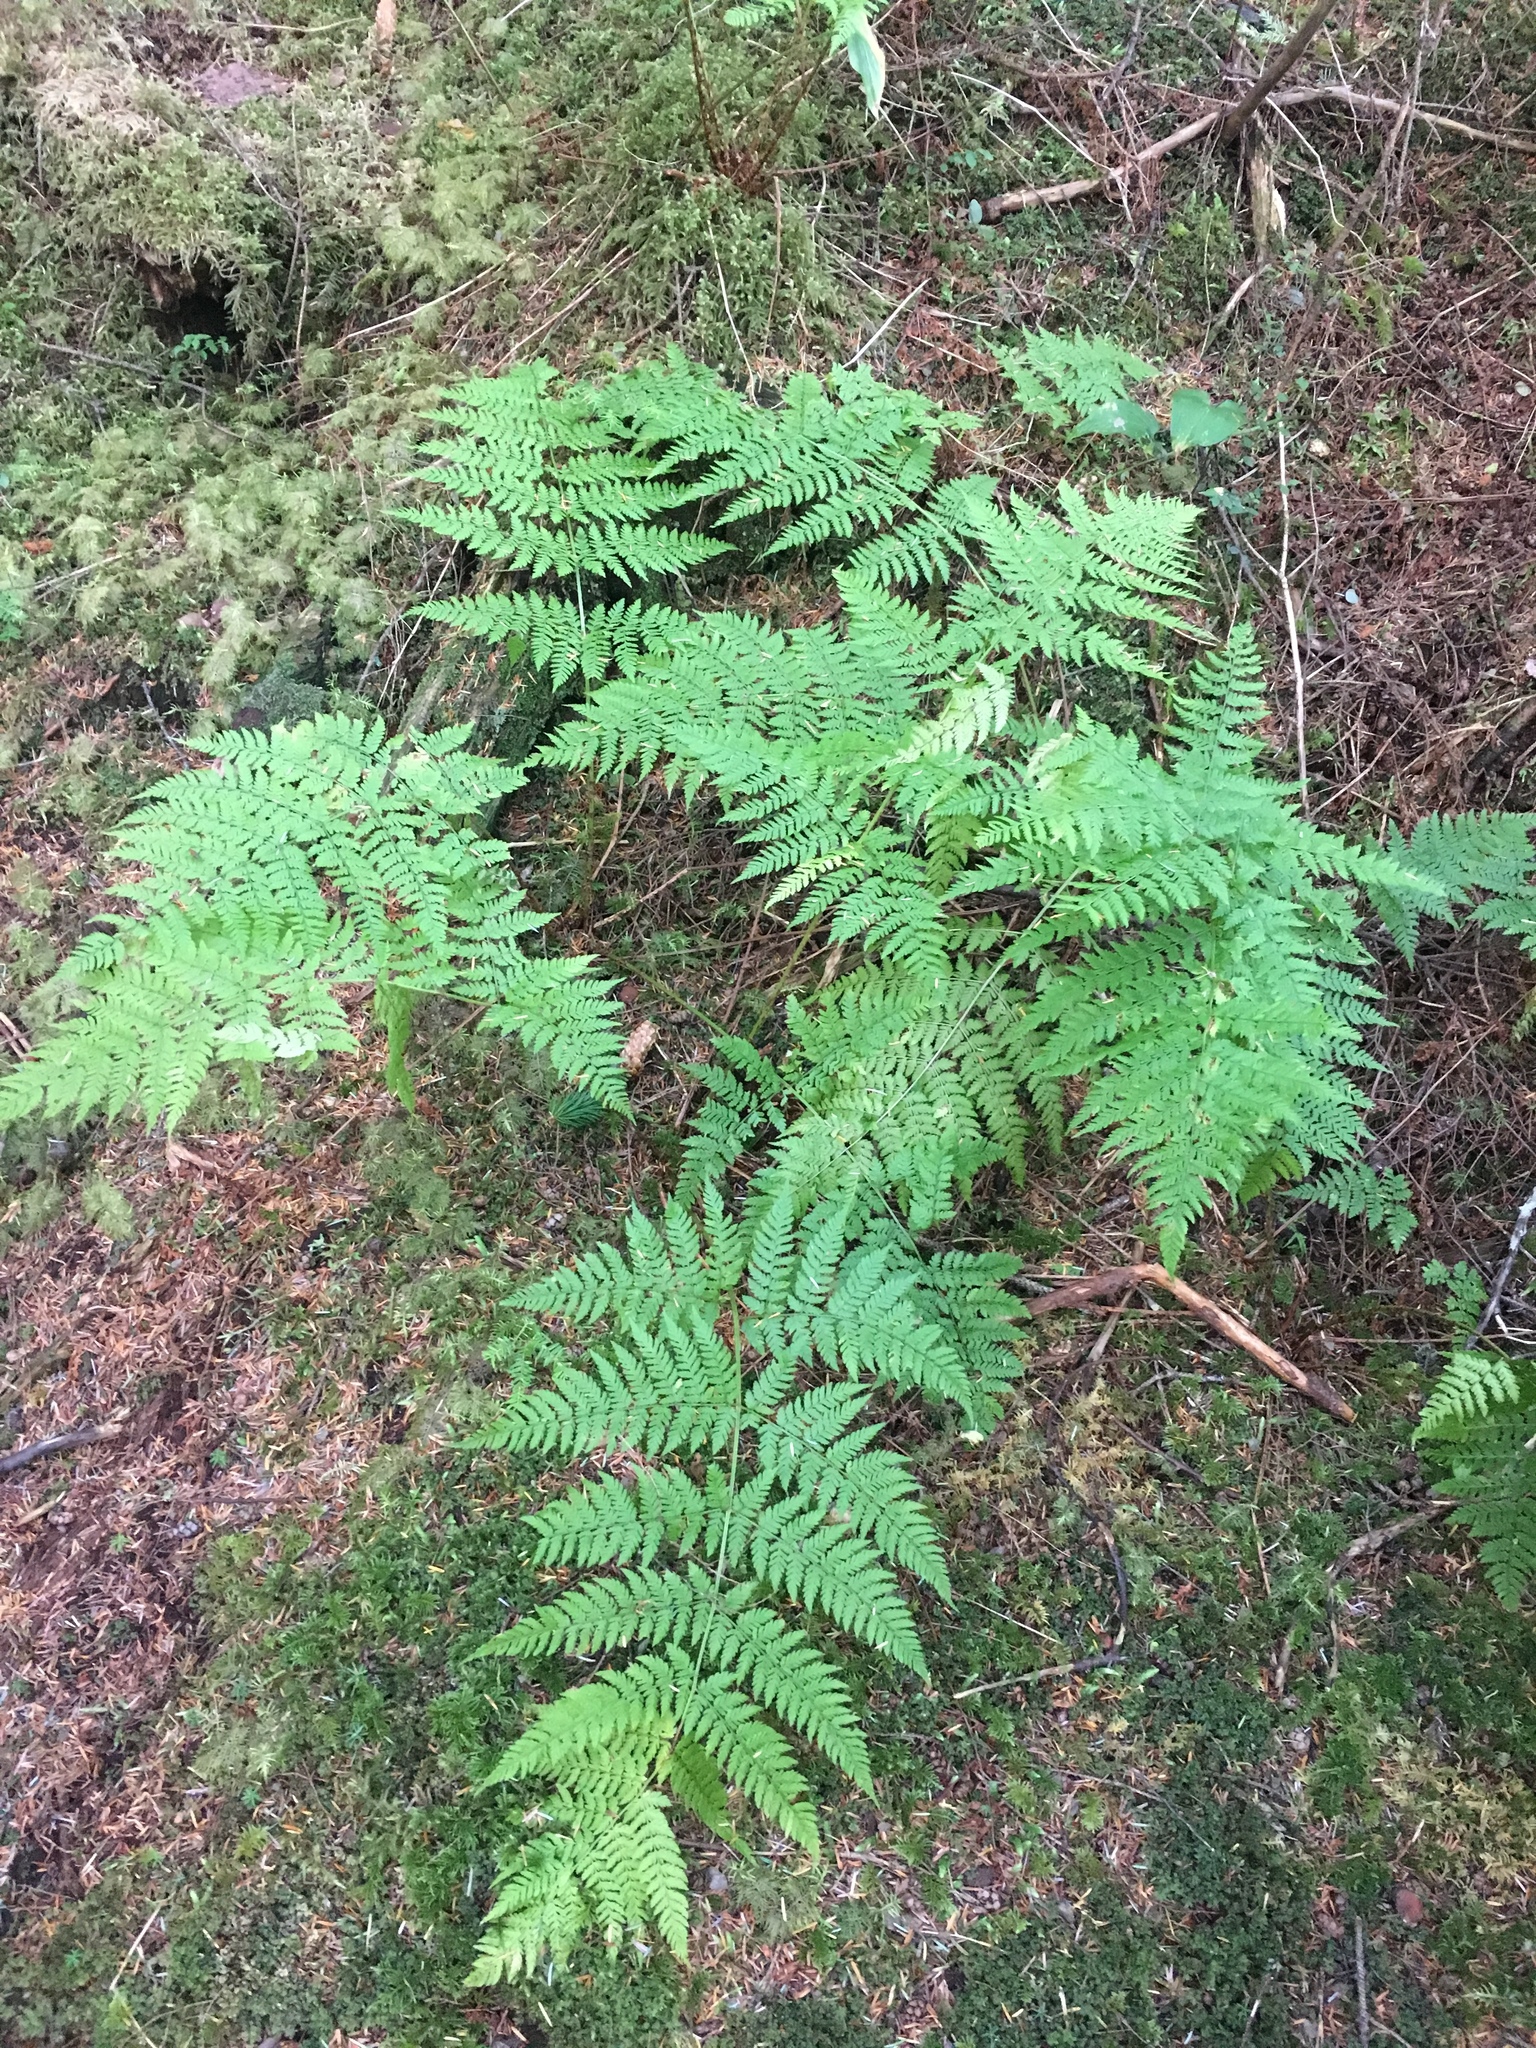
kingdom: Plantae
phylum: Tracheophyta
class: Polypodiopsida
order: Polypodiales
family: Dryopteridaceae
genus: Dryopteris
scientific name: Dryopteris expansa
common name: Northern buckler fern
